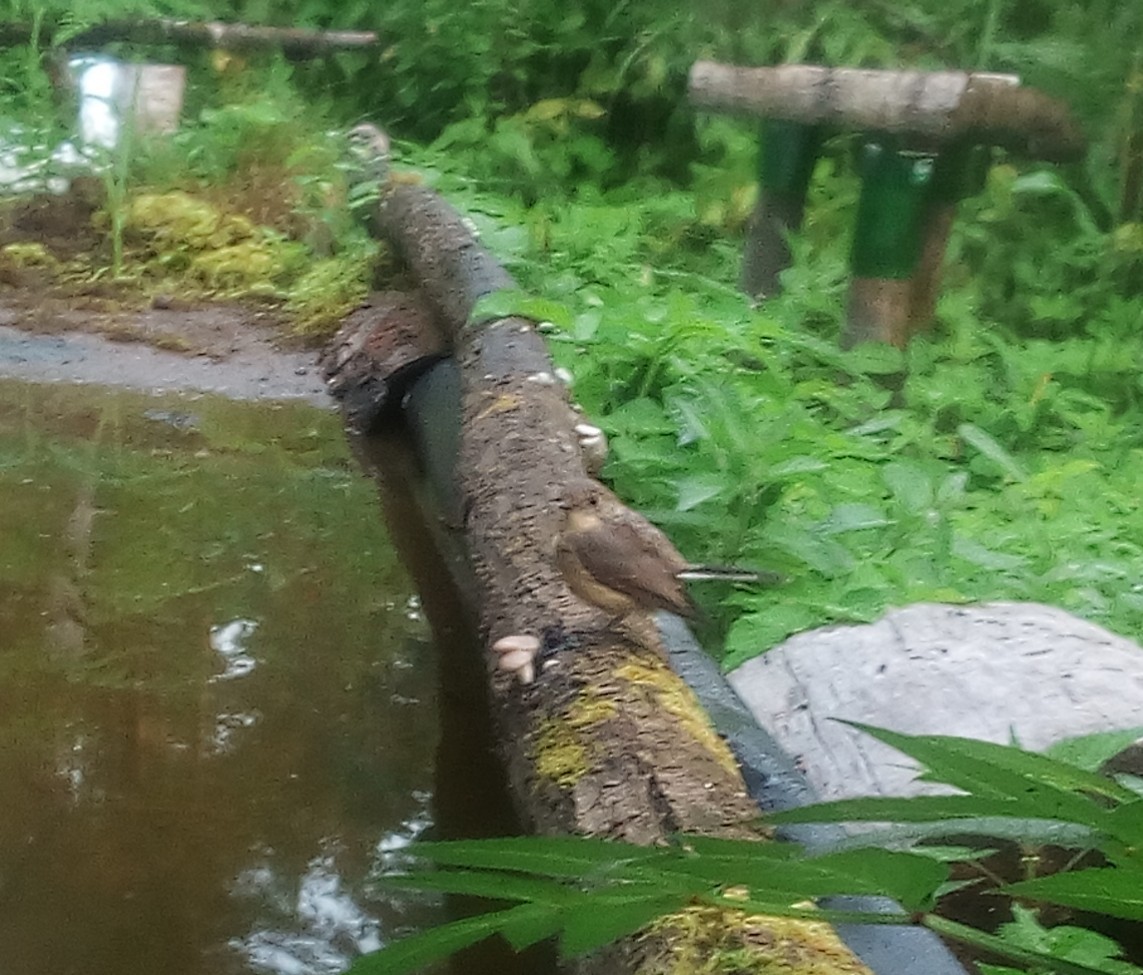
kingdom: Animalia
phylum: Chordata
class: Aves
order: Passeriformes
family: Muscicapidae
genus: Ficedula
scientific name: Ficedula parva
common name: Red-breasted flycatcher
